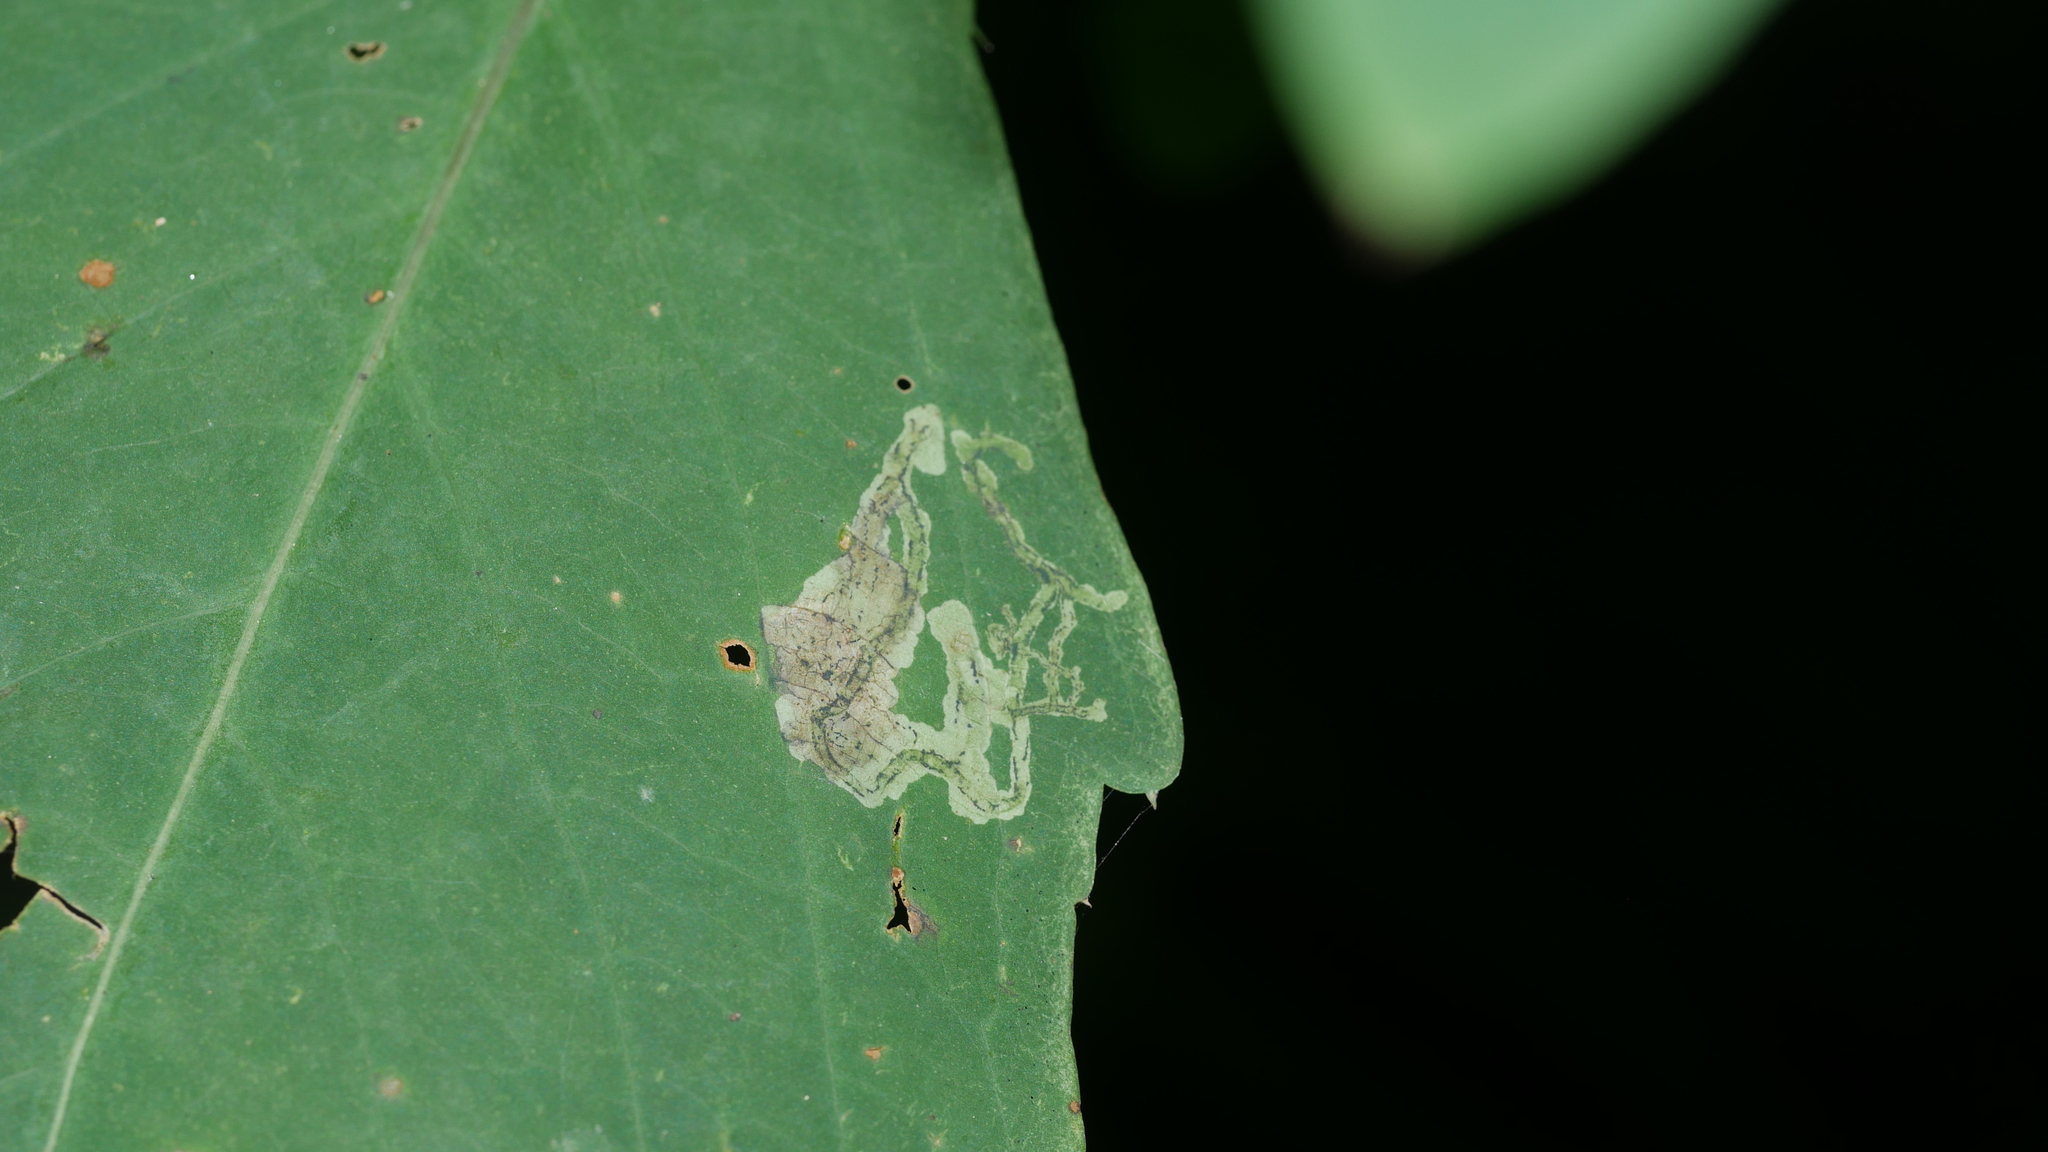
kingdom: Animalia
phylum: Arthropoda
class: Insecta
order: Diptera
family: Agromyzidae
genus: Phytoliriomyza
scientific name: Phytoliriomyza melampyga
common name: Jewelweed leaf-miner fly
